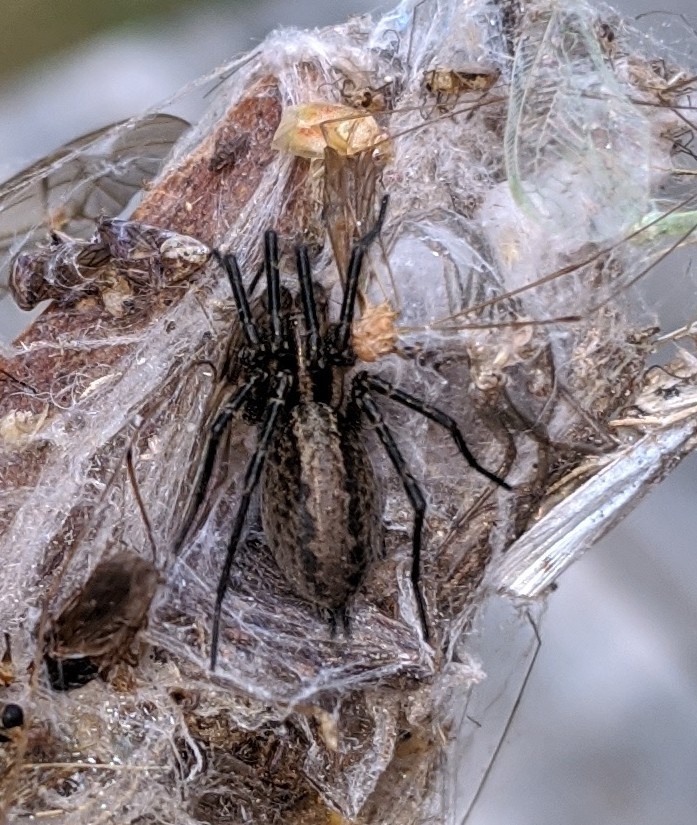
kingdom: Animalia
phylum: Arthropoda
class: Arachnida
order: Araneae
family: Agelenidae
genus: Agelenopsis
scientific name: Agelenopsis
